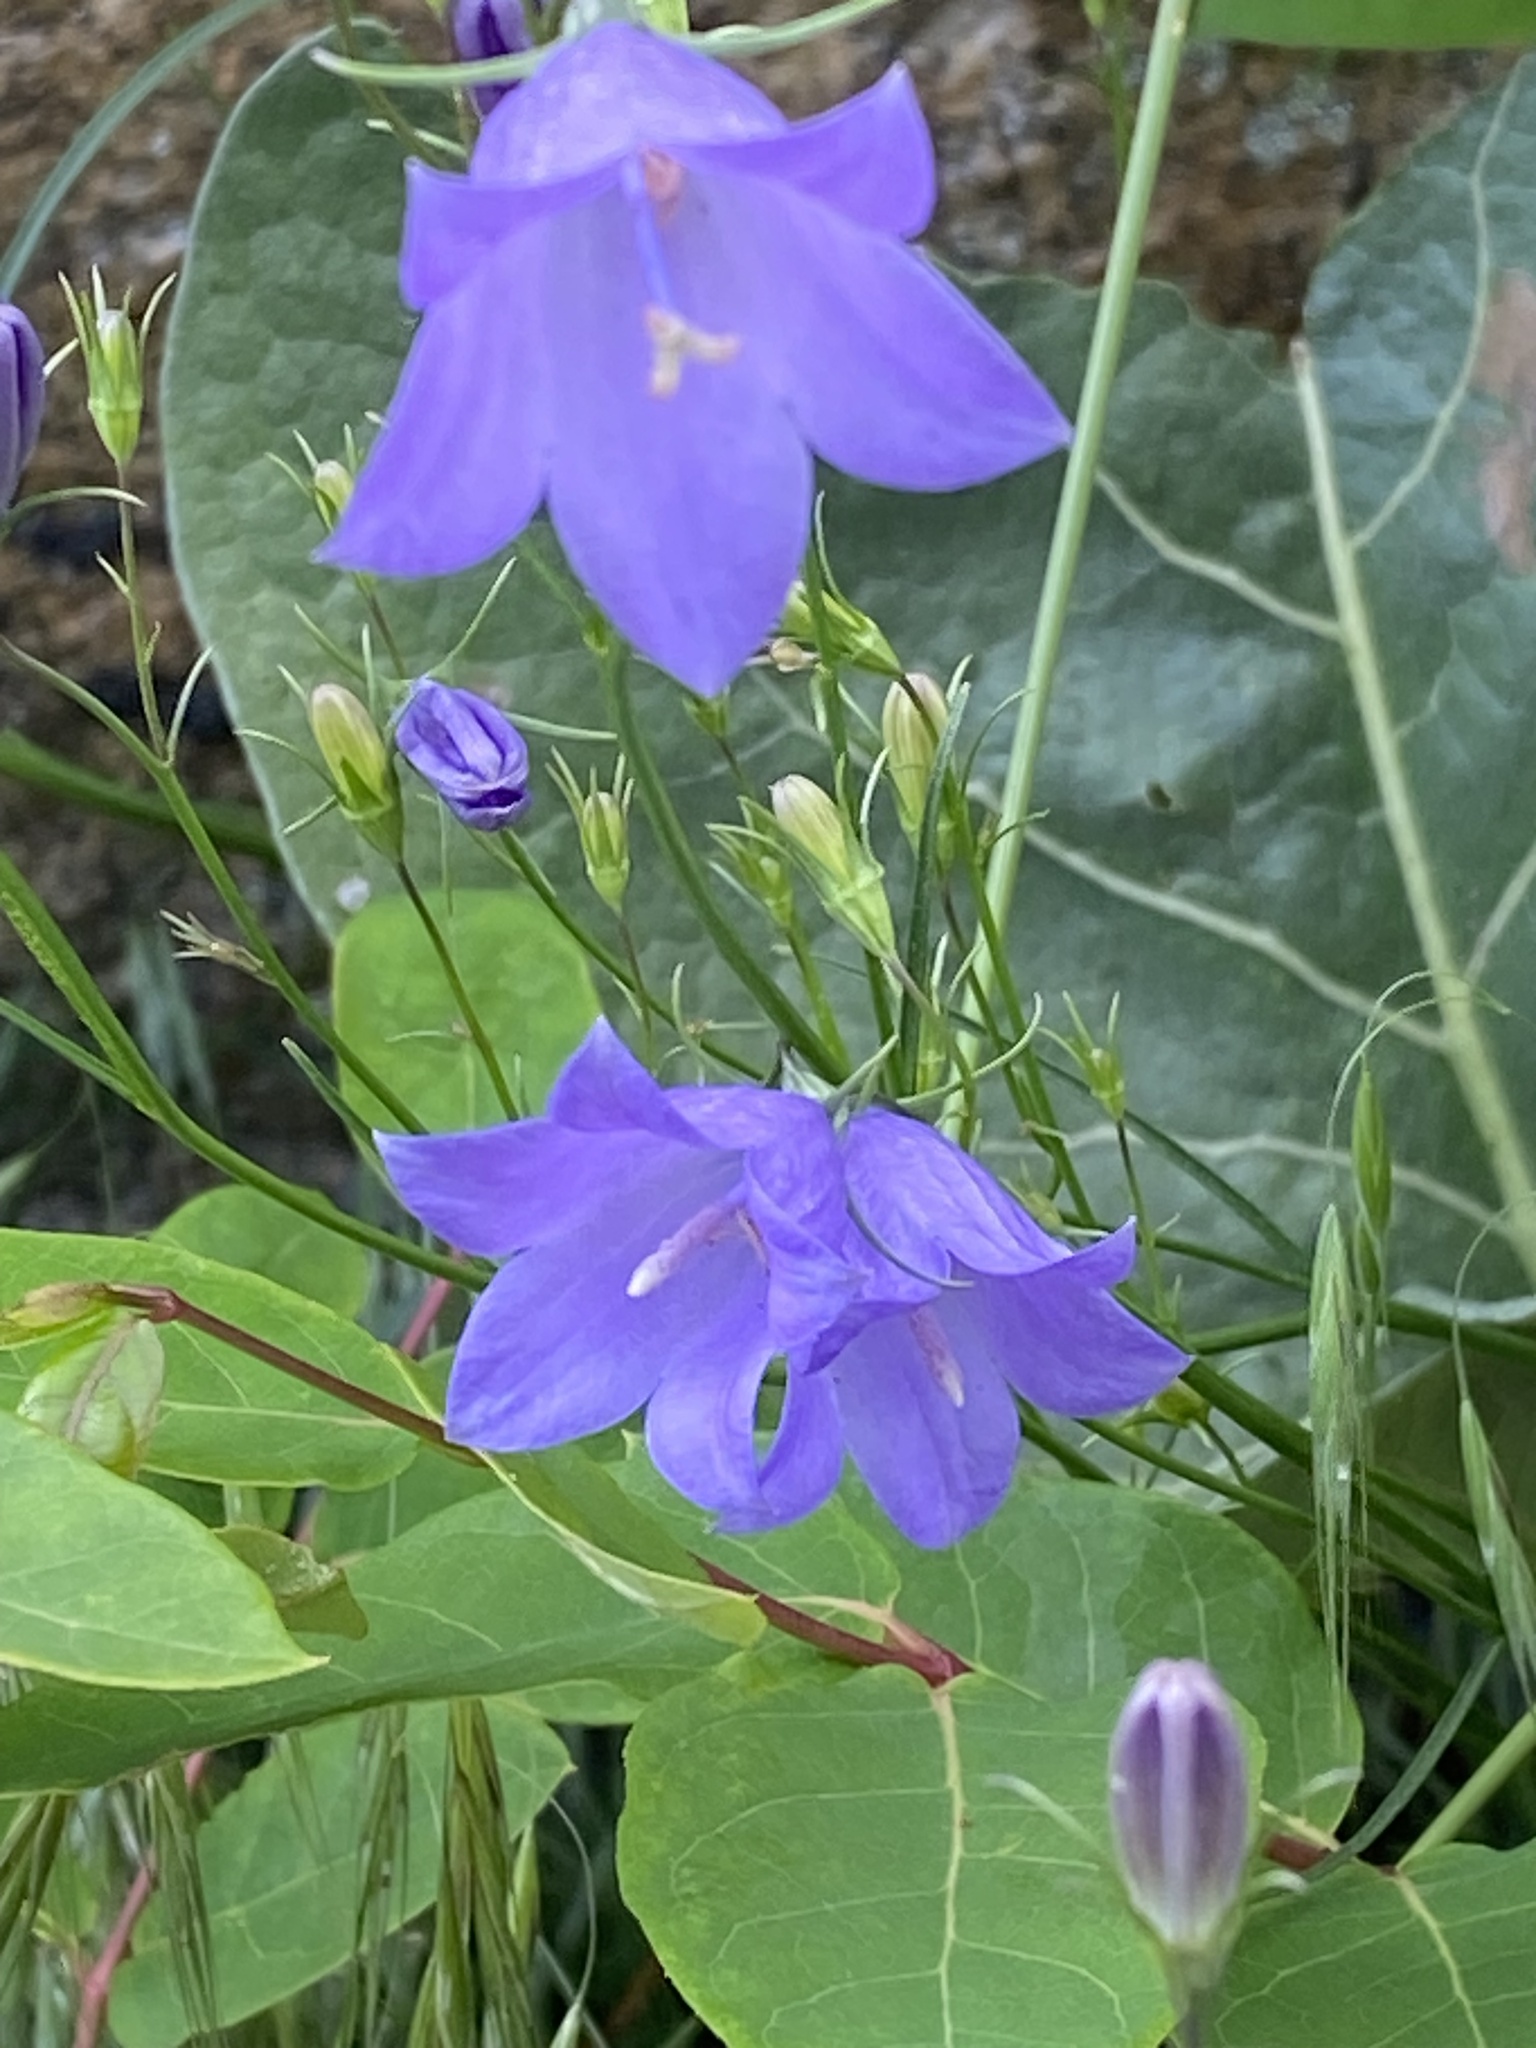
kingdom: Plantae
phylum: Tracheophyta
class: Magnoliopsida
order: Asterales
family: Campanulaceae
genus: Campanula
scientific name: Campanula
